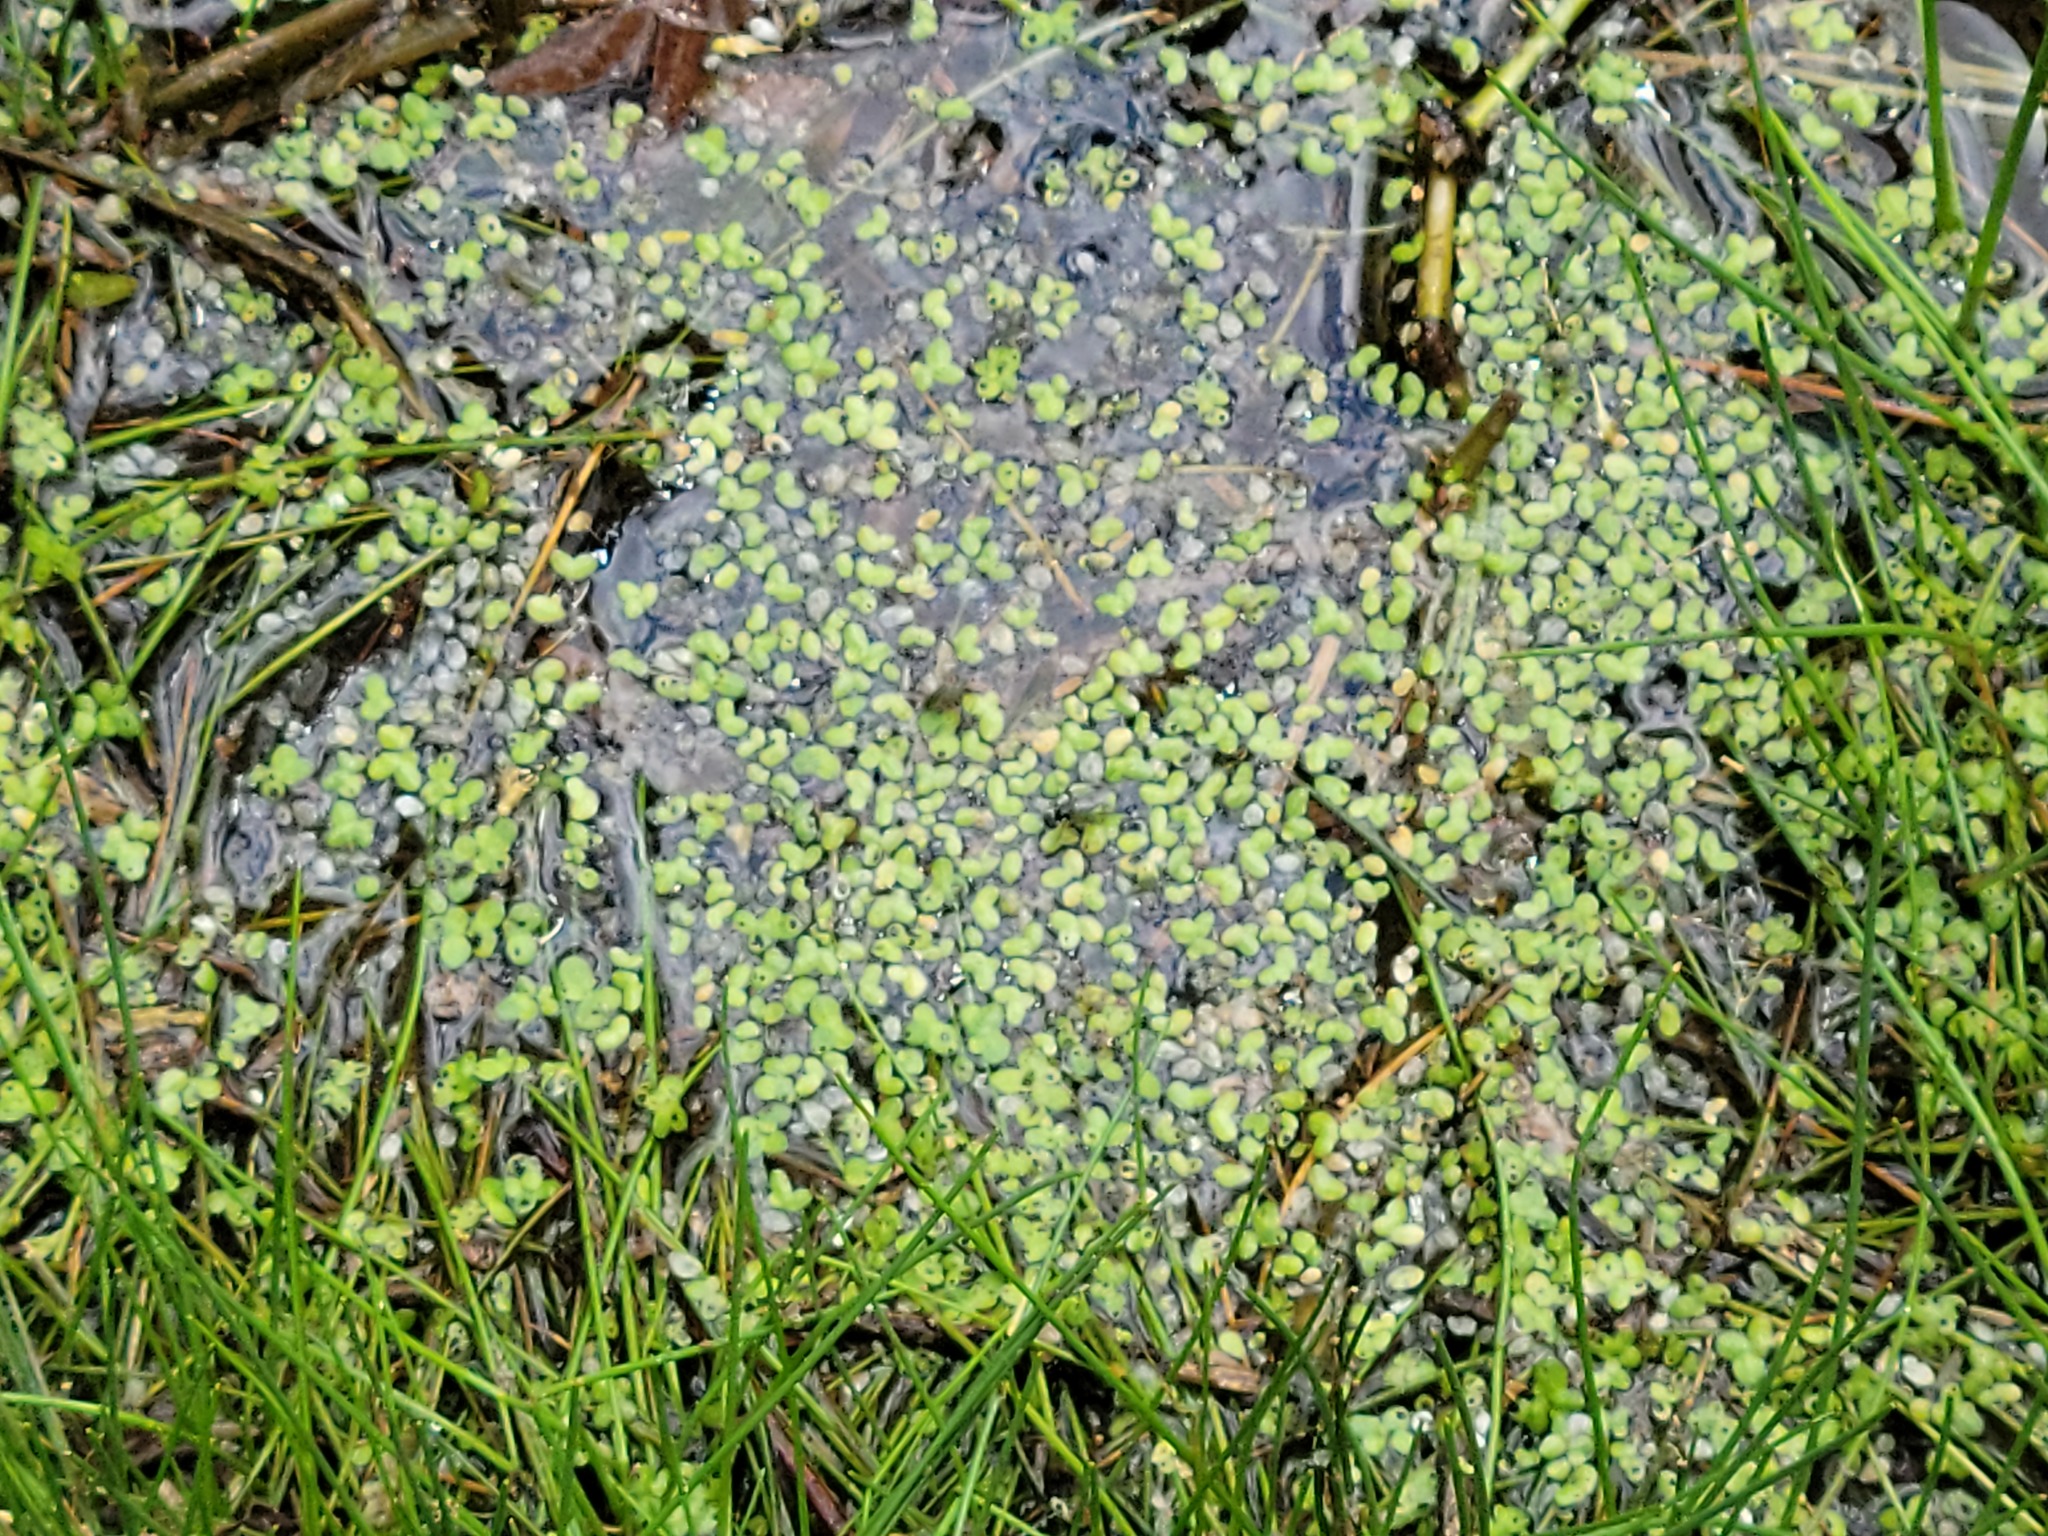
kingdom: Plantae
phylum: Tracheophyta
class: Liliopsida
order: Alismatales
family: Araceae
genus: Lemna
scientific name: Lemna minor
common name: Common duckweed
